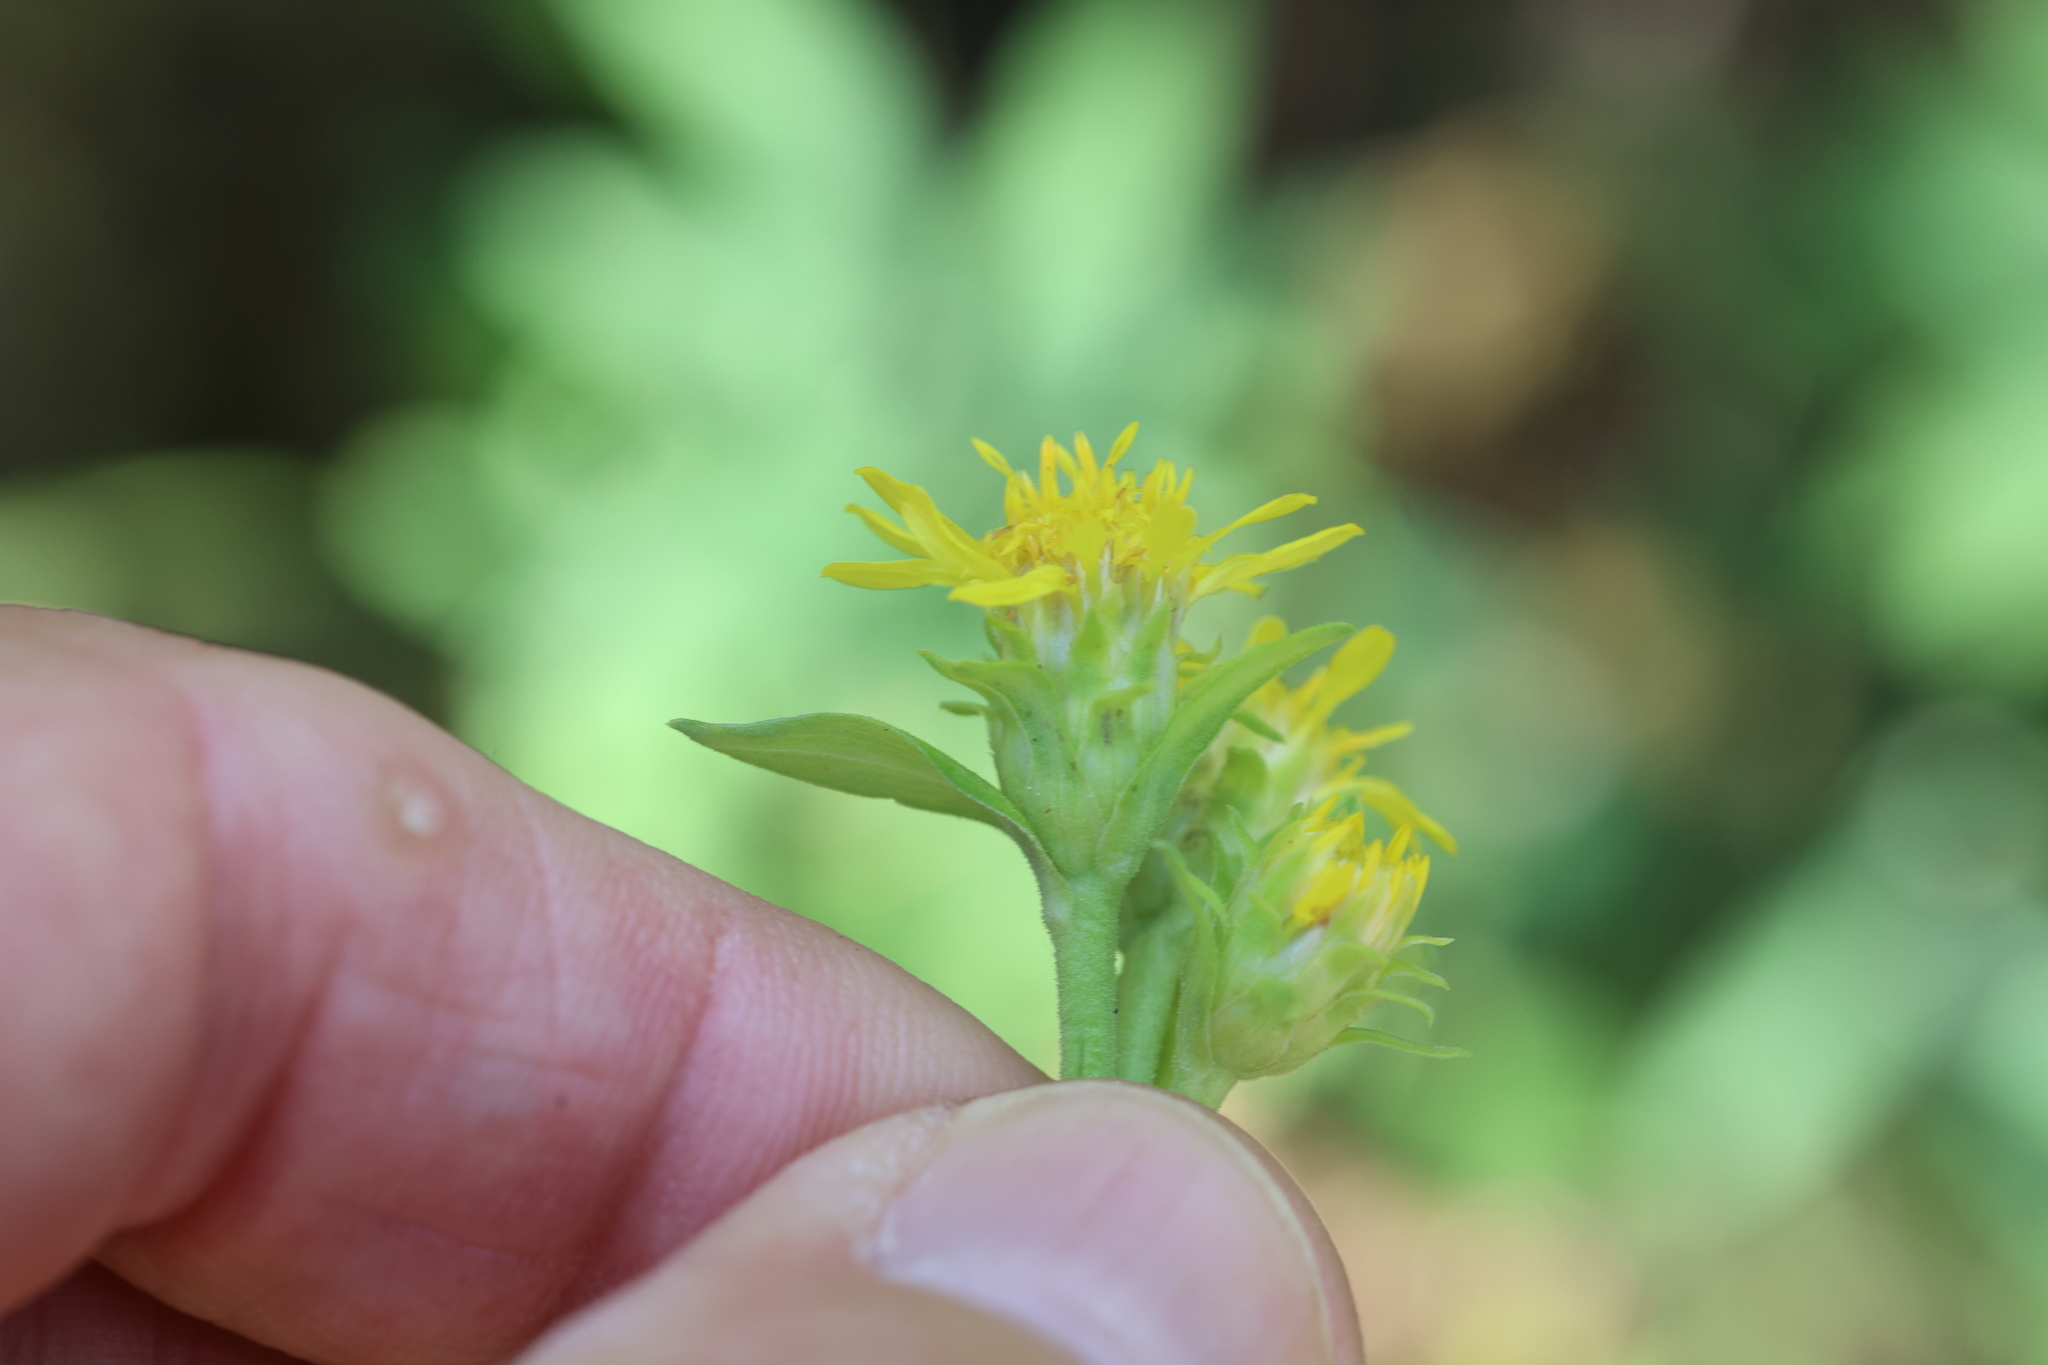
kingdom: Plantae
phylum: Tracheophyta
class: Magnoliopsida
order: Asterales
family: Asteraceae
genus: Oreochrysum
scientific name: Oreochrysum parryi
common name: Parry's goldenweed
